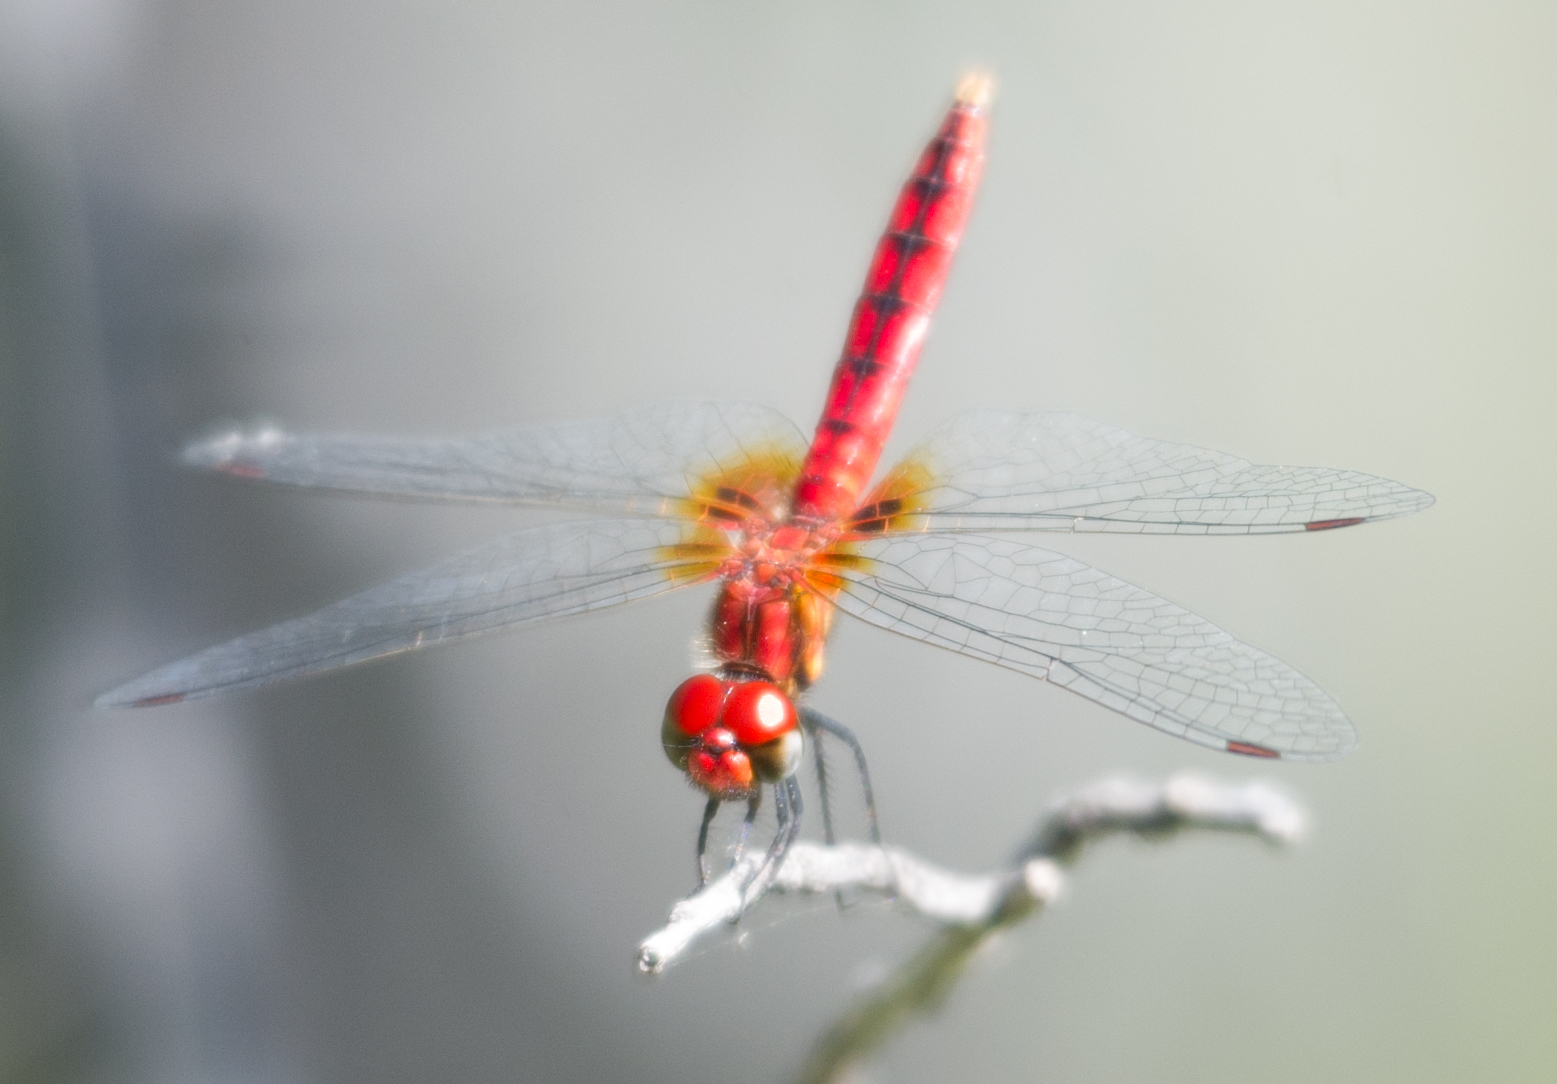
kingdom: Animalia
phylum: Arthropoda
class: Insecta
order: Odonata
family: Libellulidae
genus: Aethriamanta
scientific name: Aethriamanta rezia
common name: Pygmy basker
